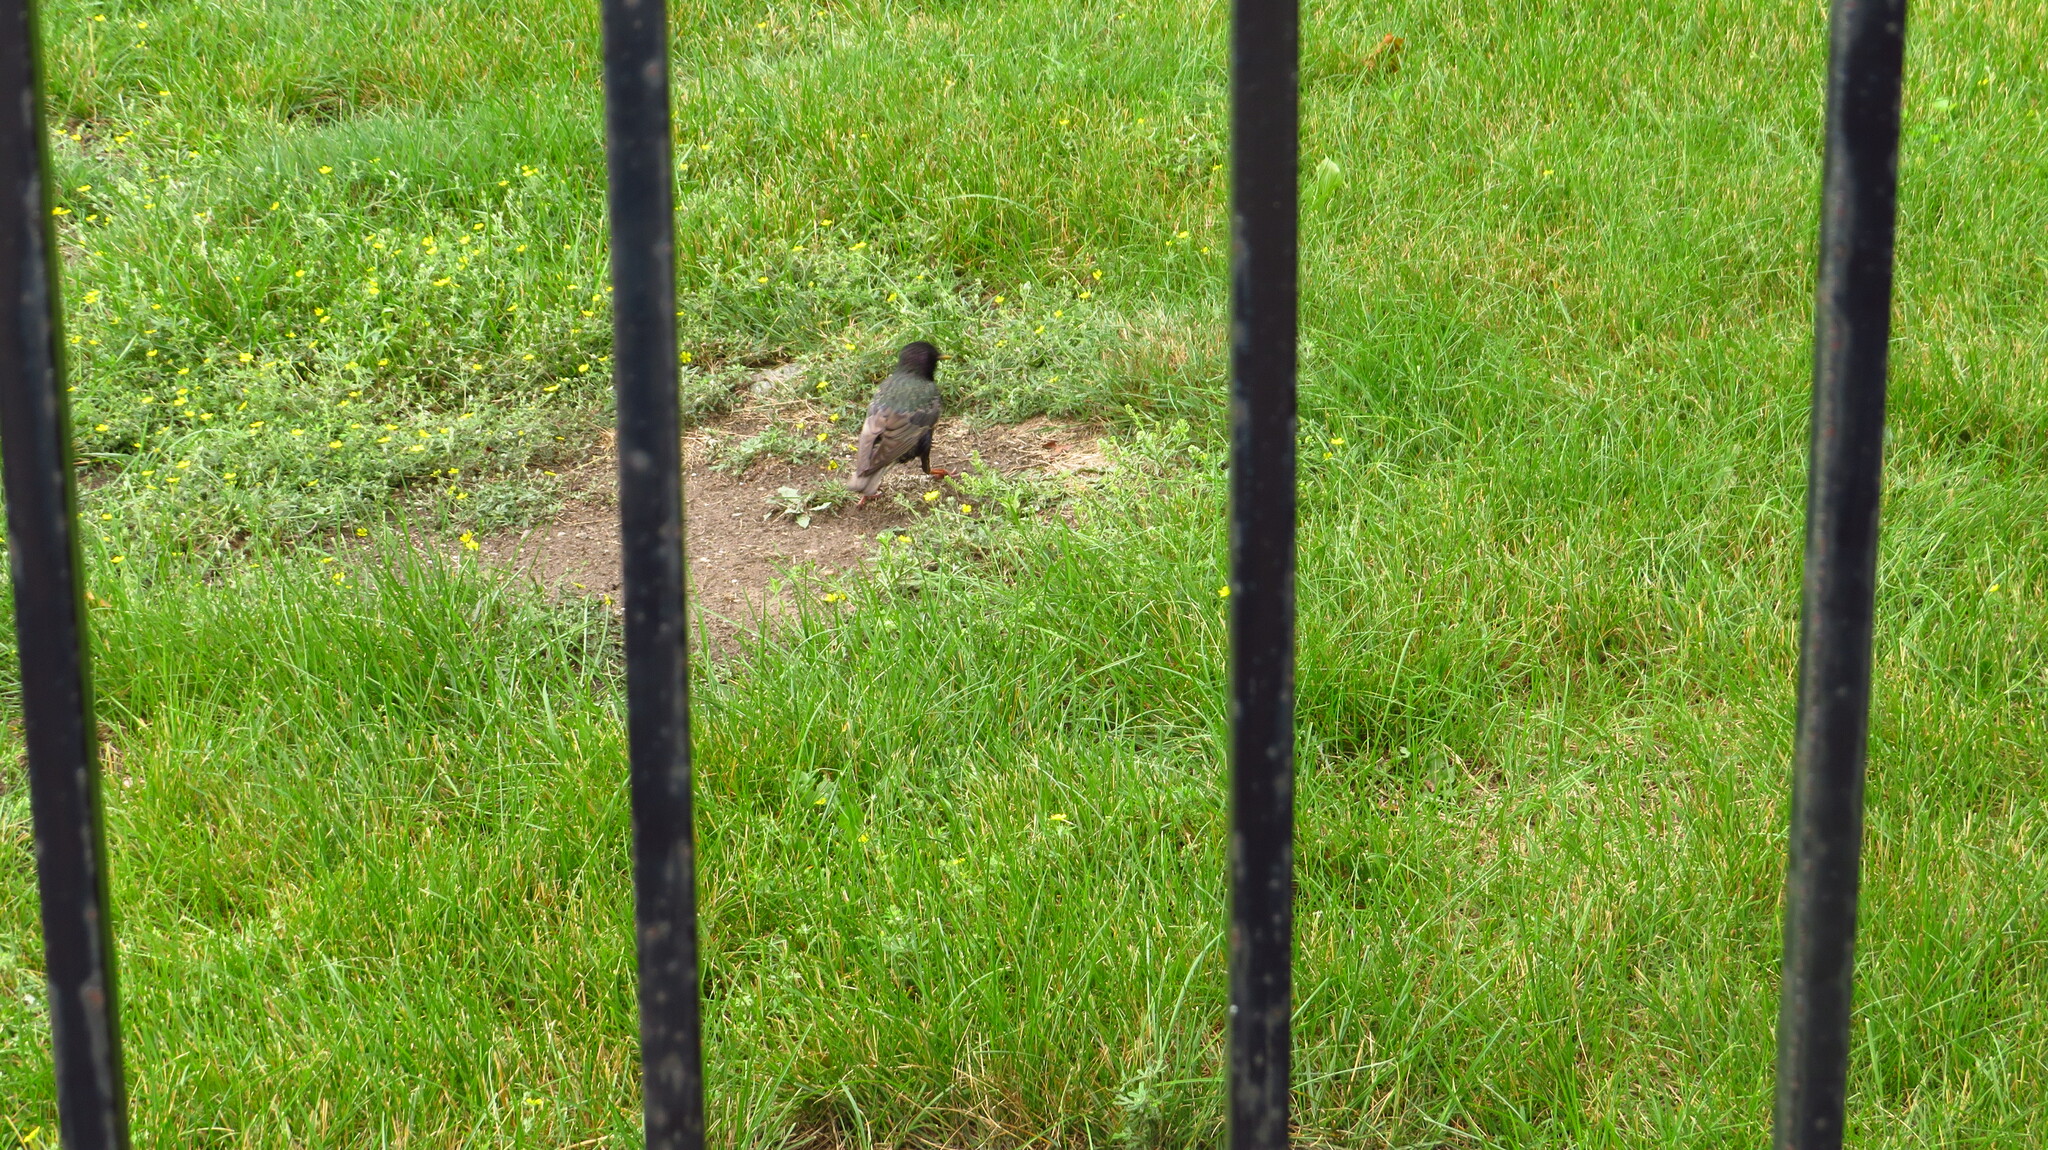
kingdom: Animalia
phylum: Chordata
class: Aves
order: Passeriformes
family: Sturnidae
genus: Sturnus
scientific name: Sturnus vulgaris
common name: Common starling
